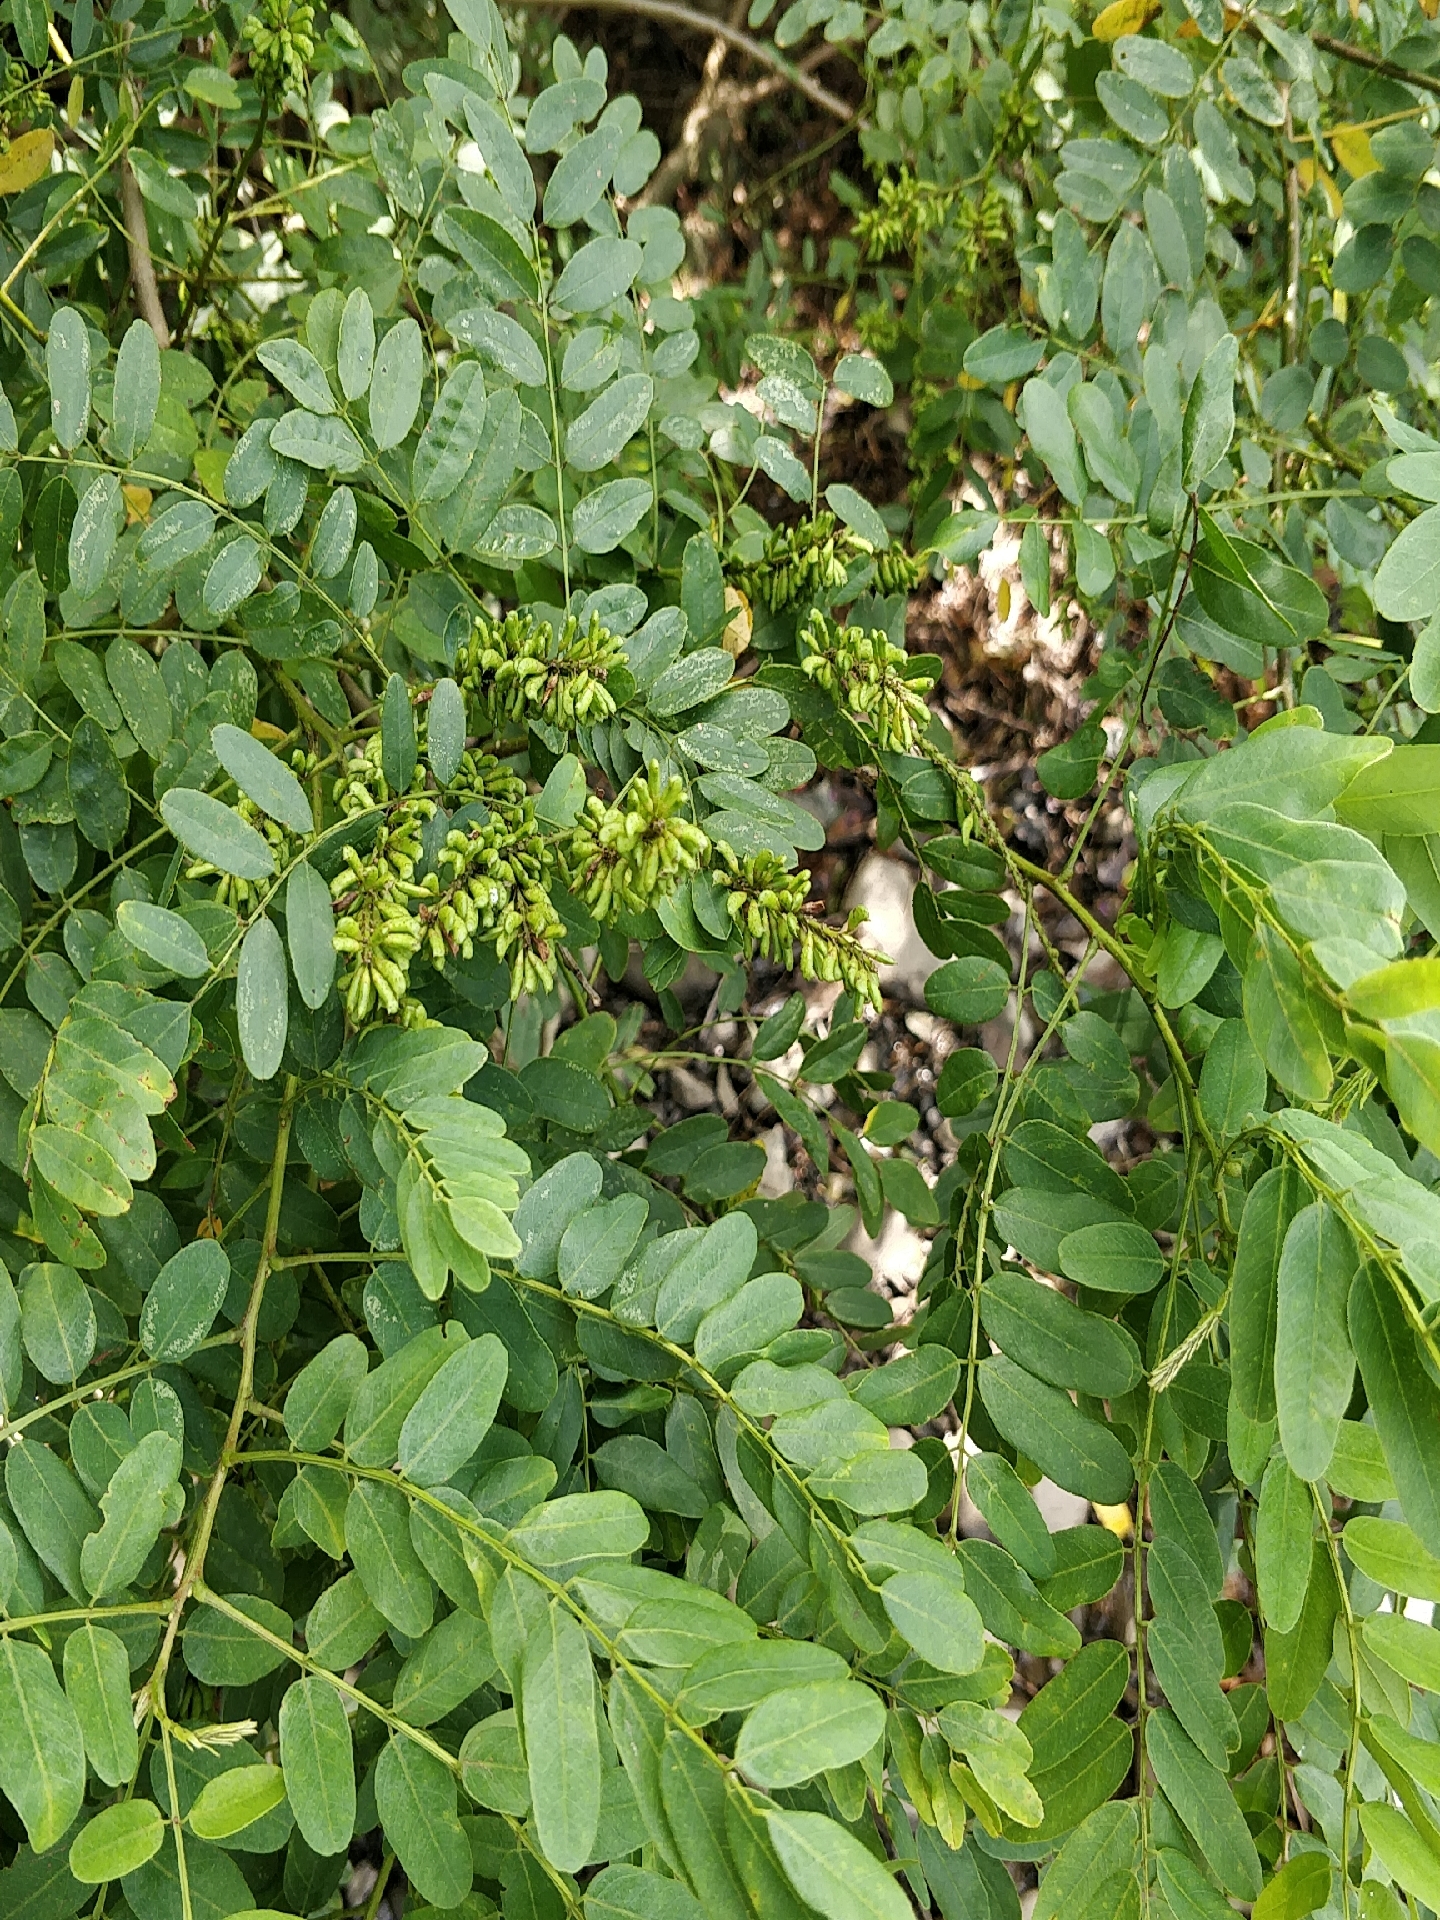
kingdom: Plantae
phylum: Tracheophyta
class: Magnoliopsida
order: Fabales
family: Fabaceae
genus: Amorpha
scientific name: Amorpha fruticosa
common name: False indigo
